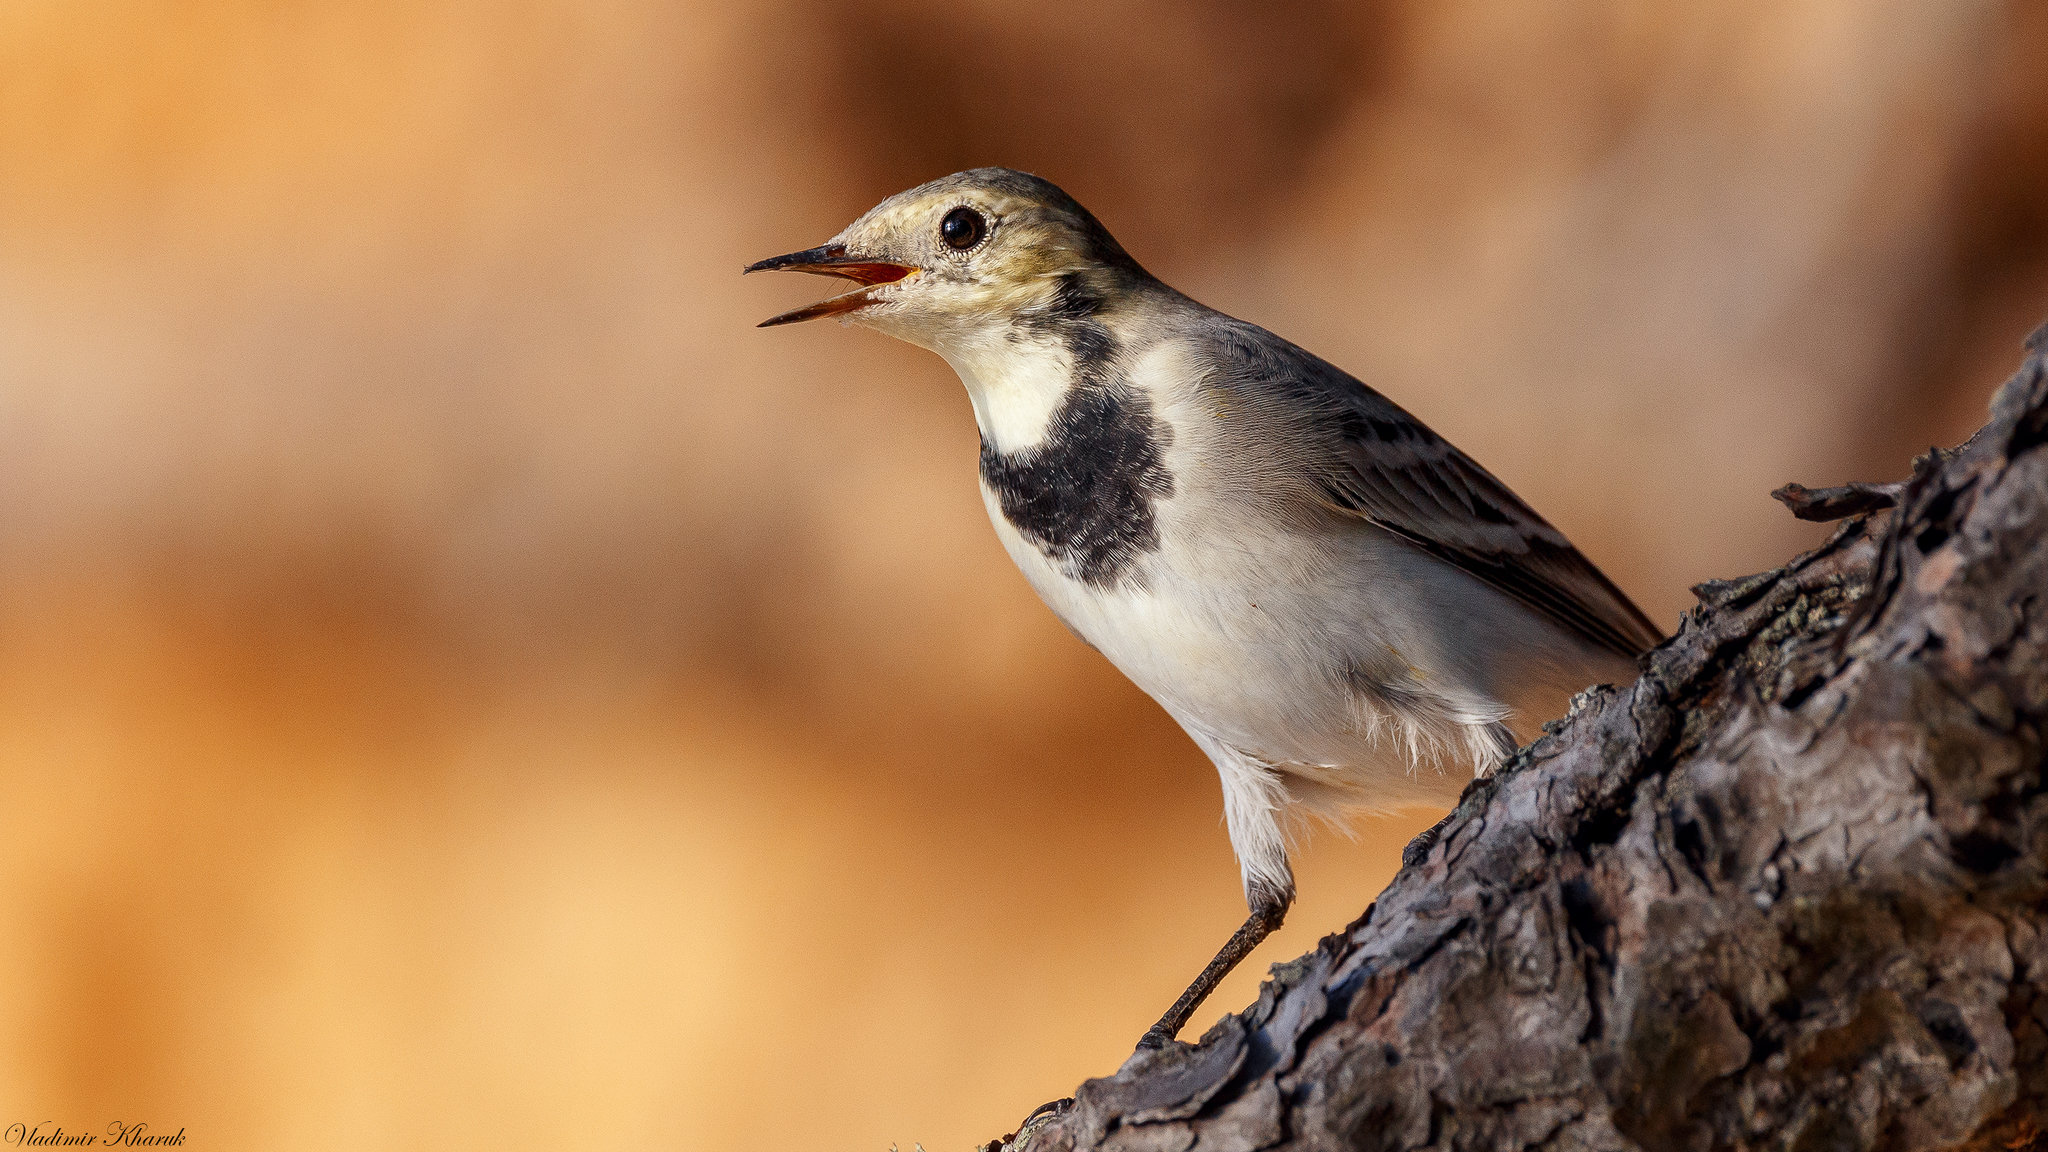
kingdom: Animalia
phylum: Chordata
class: Aves
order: Passeriformes
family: Motacillidae
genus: Motacilla
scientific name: Motacilla alba
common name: White wagtail
